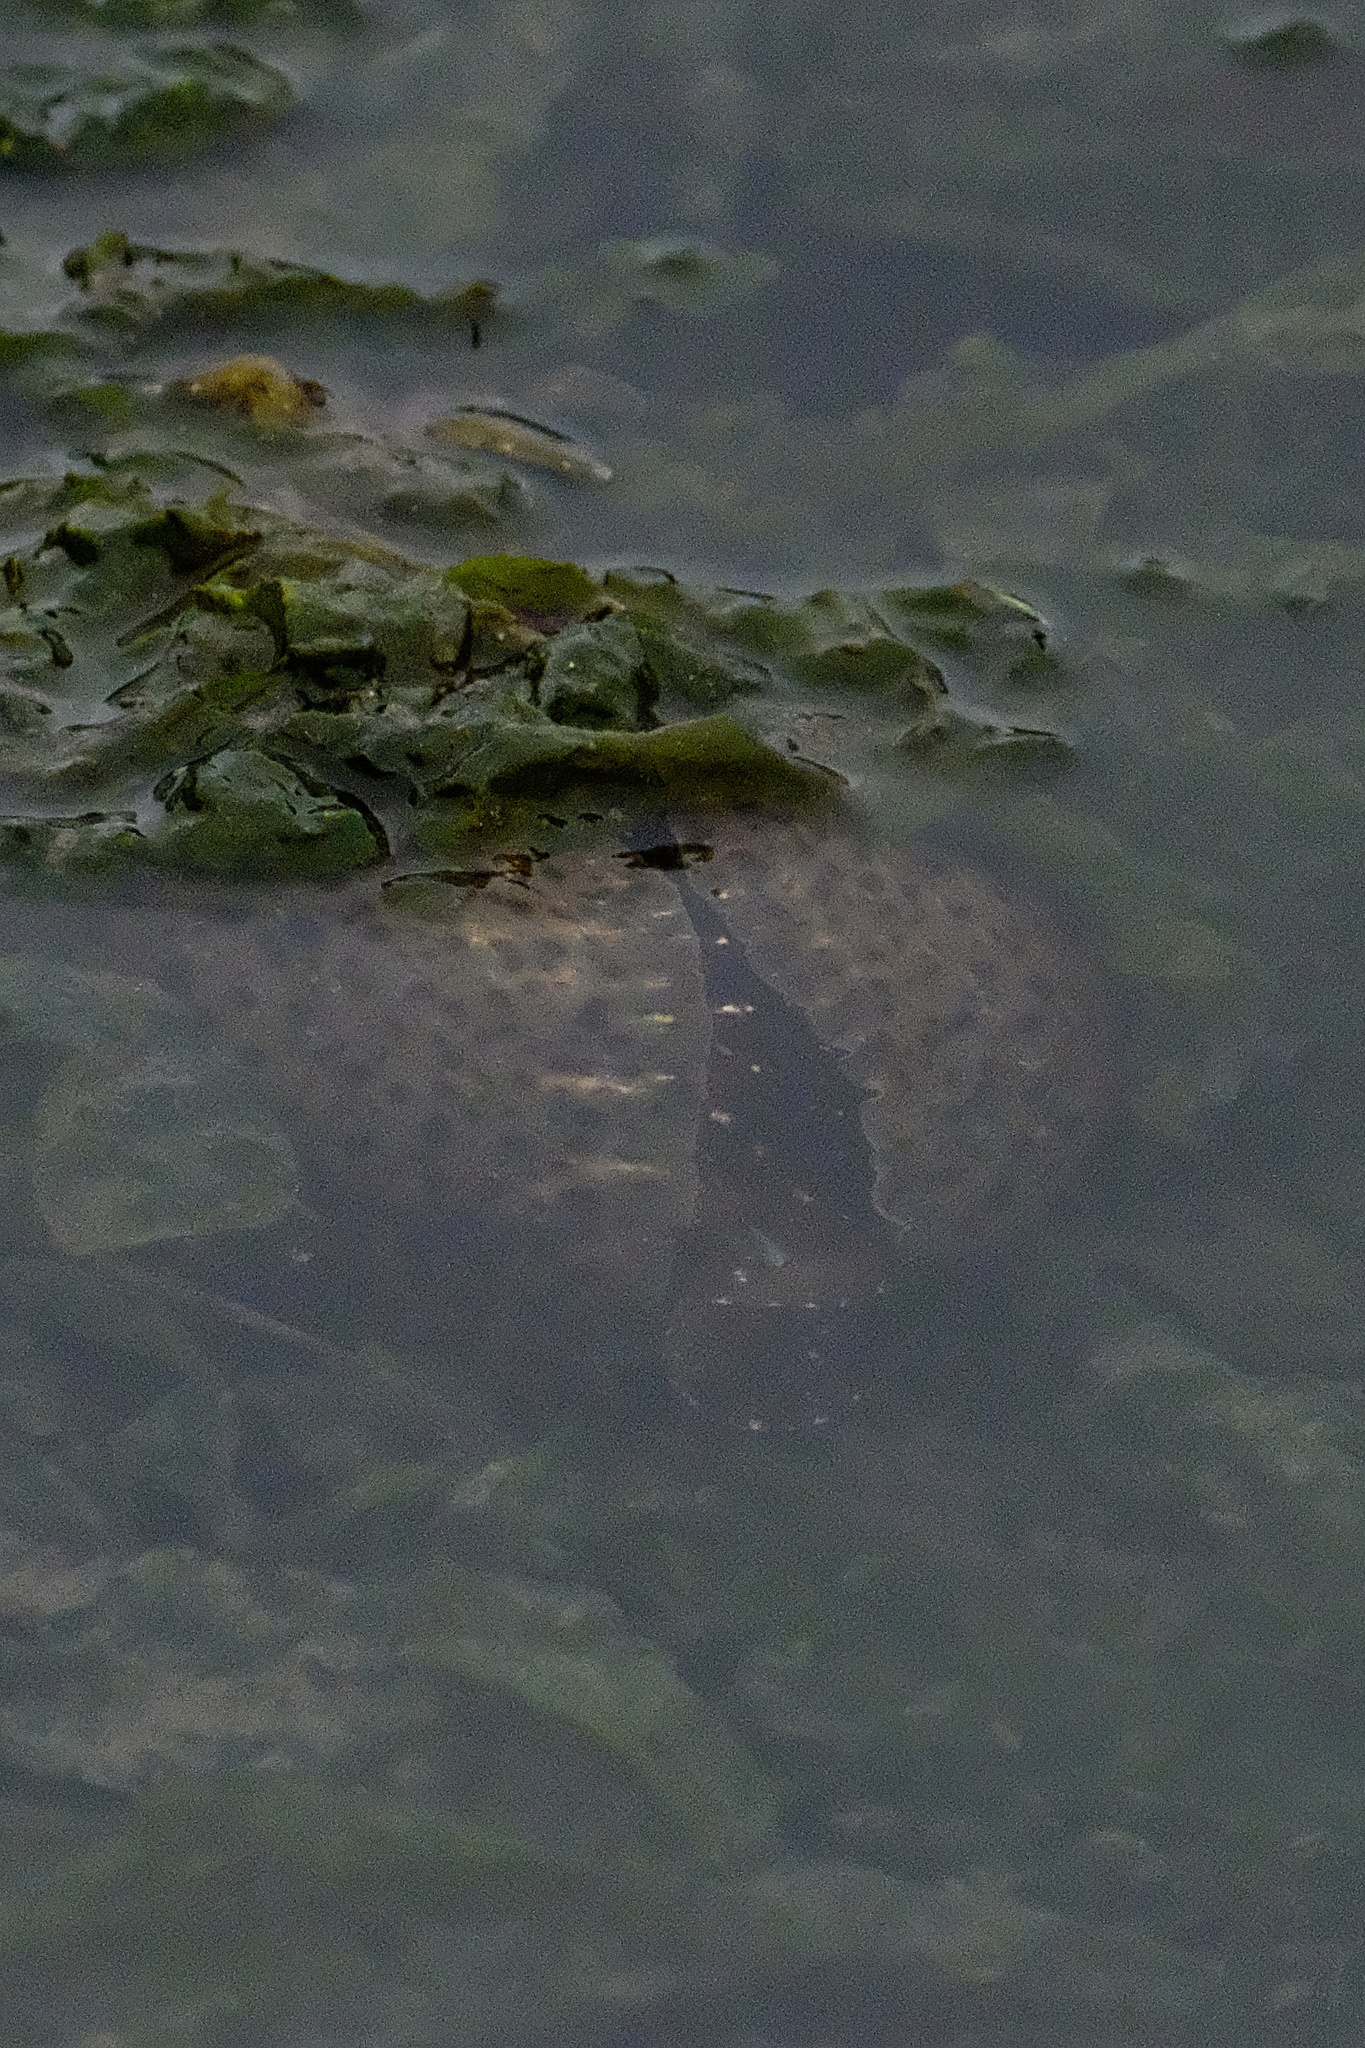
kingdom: Animalia
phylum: Mollusca
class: Gastropoda
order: Aplysiida
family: Aplysiidae
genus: Aplysia
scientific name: Aplysia californica
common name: California seahare
